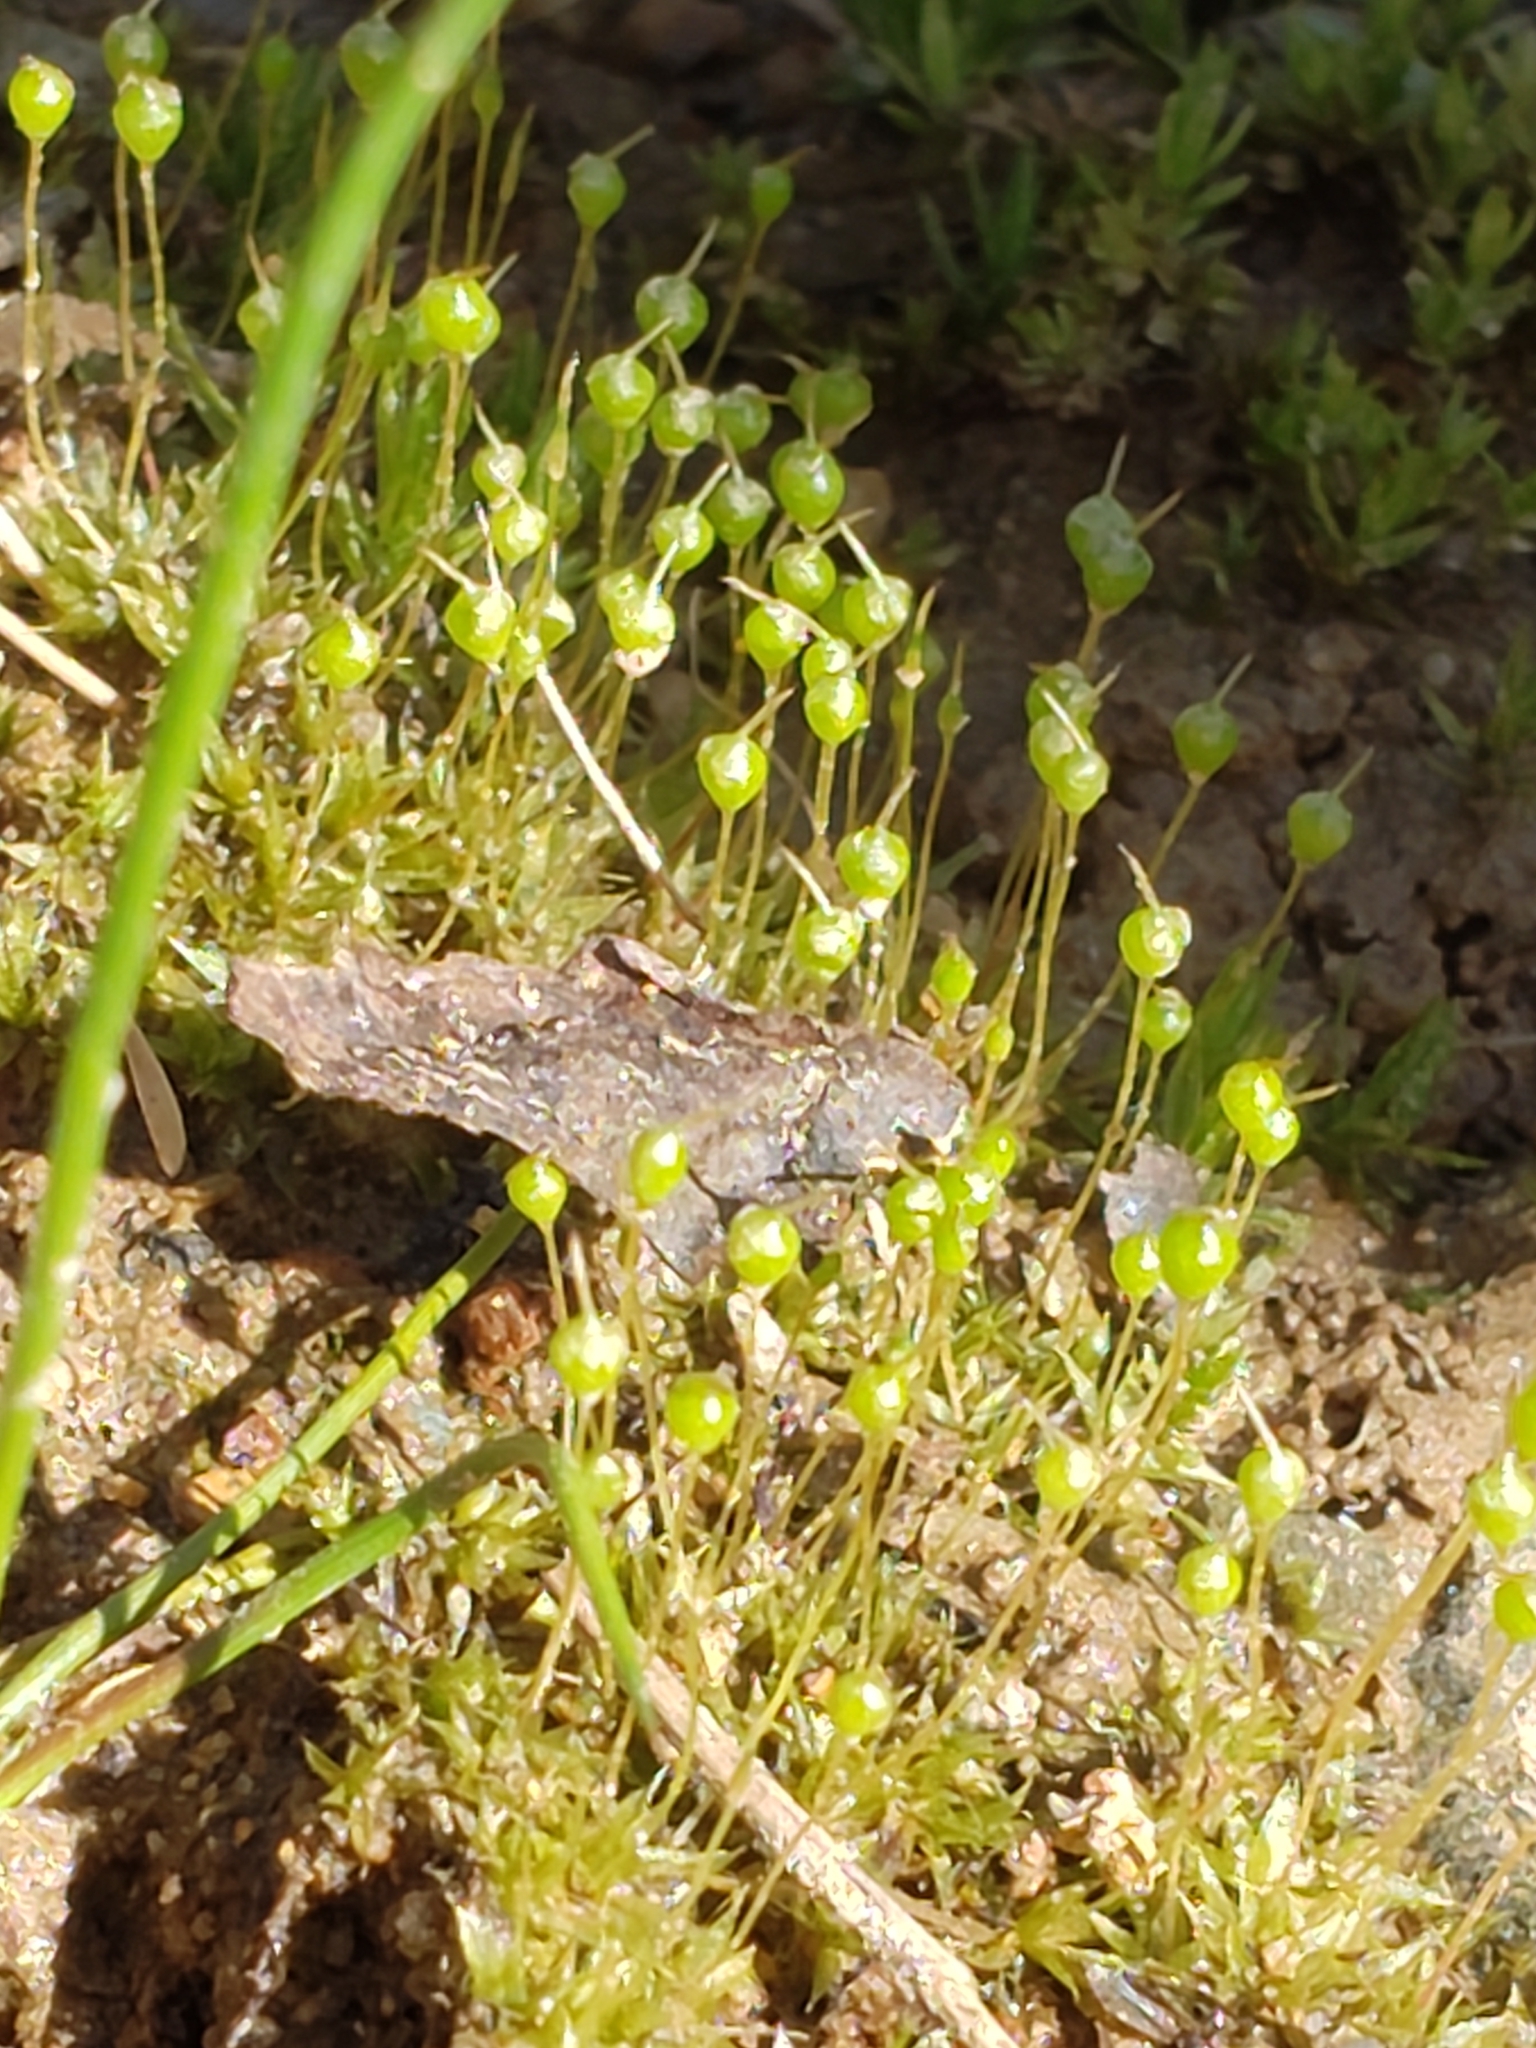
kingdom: Plantae
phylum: Bryophyta
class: Bryopsida
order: Funariales
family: Funariaceae
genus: Physcomitrium
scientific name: Physcomitrium pyriforme
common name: Common bladder-moss
